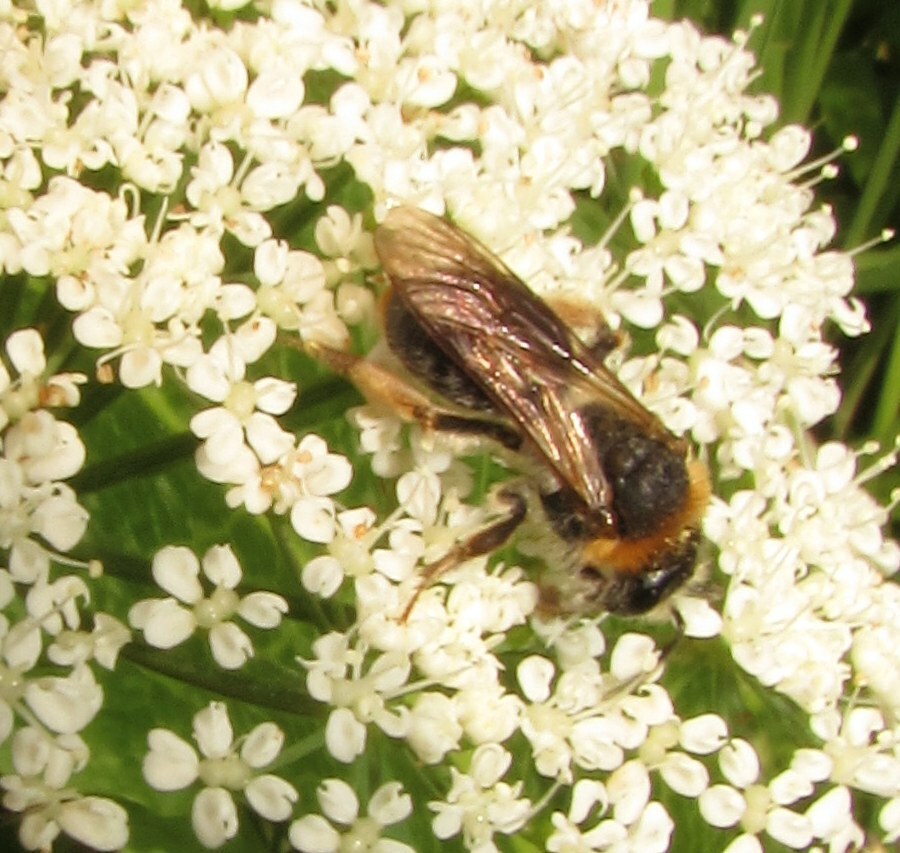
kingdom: Animalia
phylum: Arthropoda
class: Insecta
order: Hymenoptera
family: Andrenidae
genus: Andrena
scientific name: Andrena haemorrhoa
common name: Early mining bee
